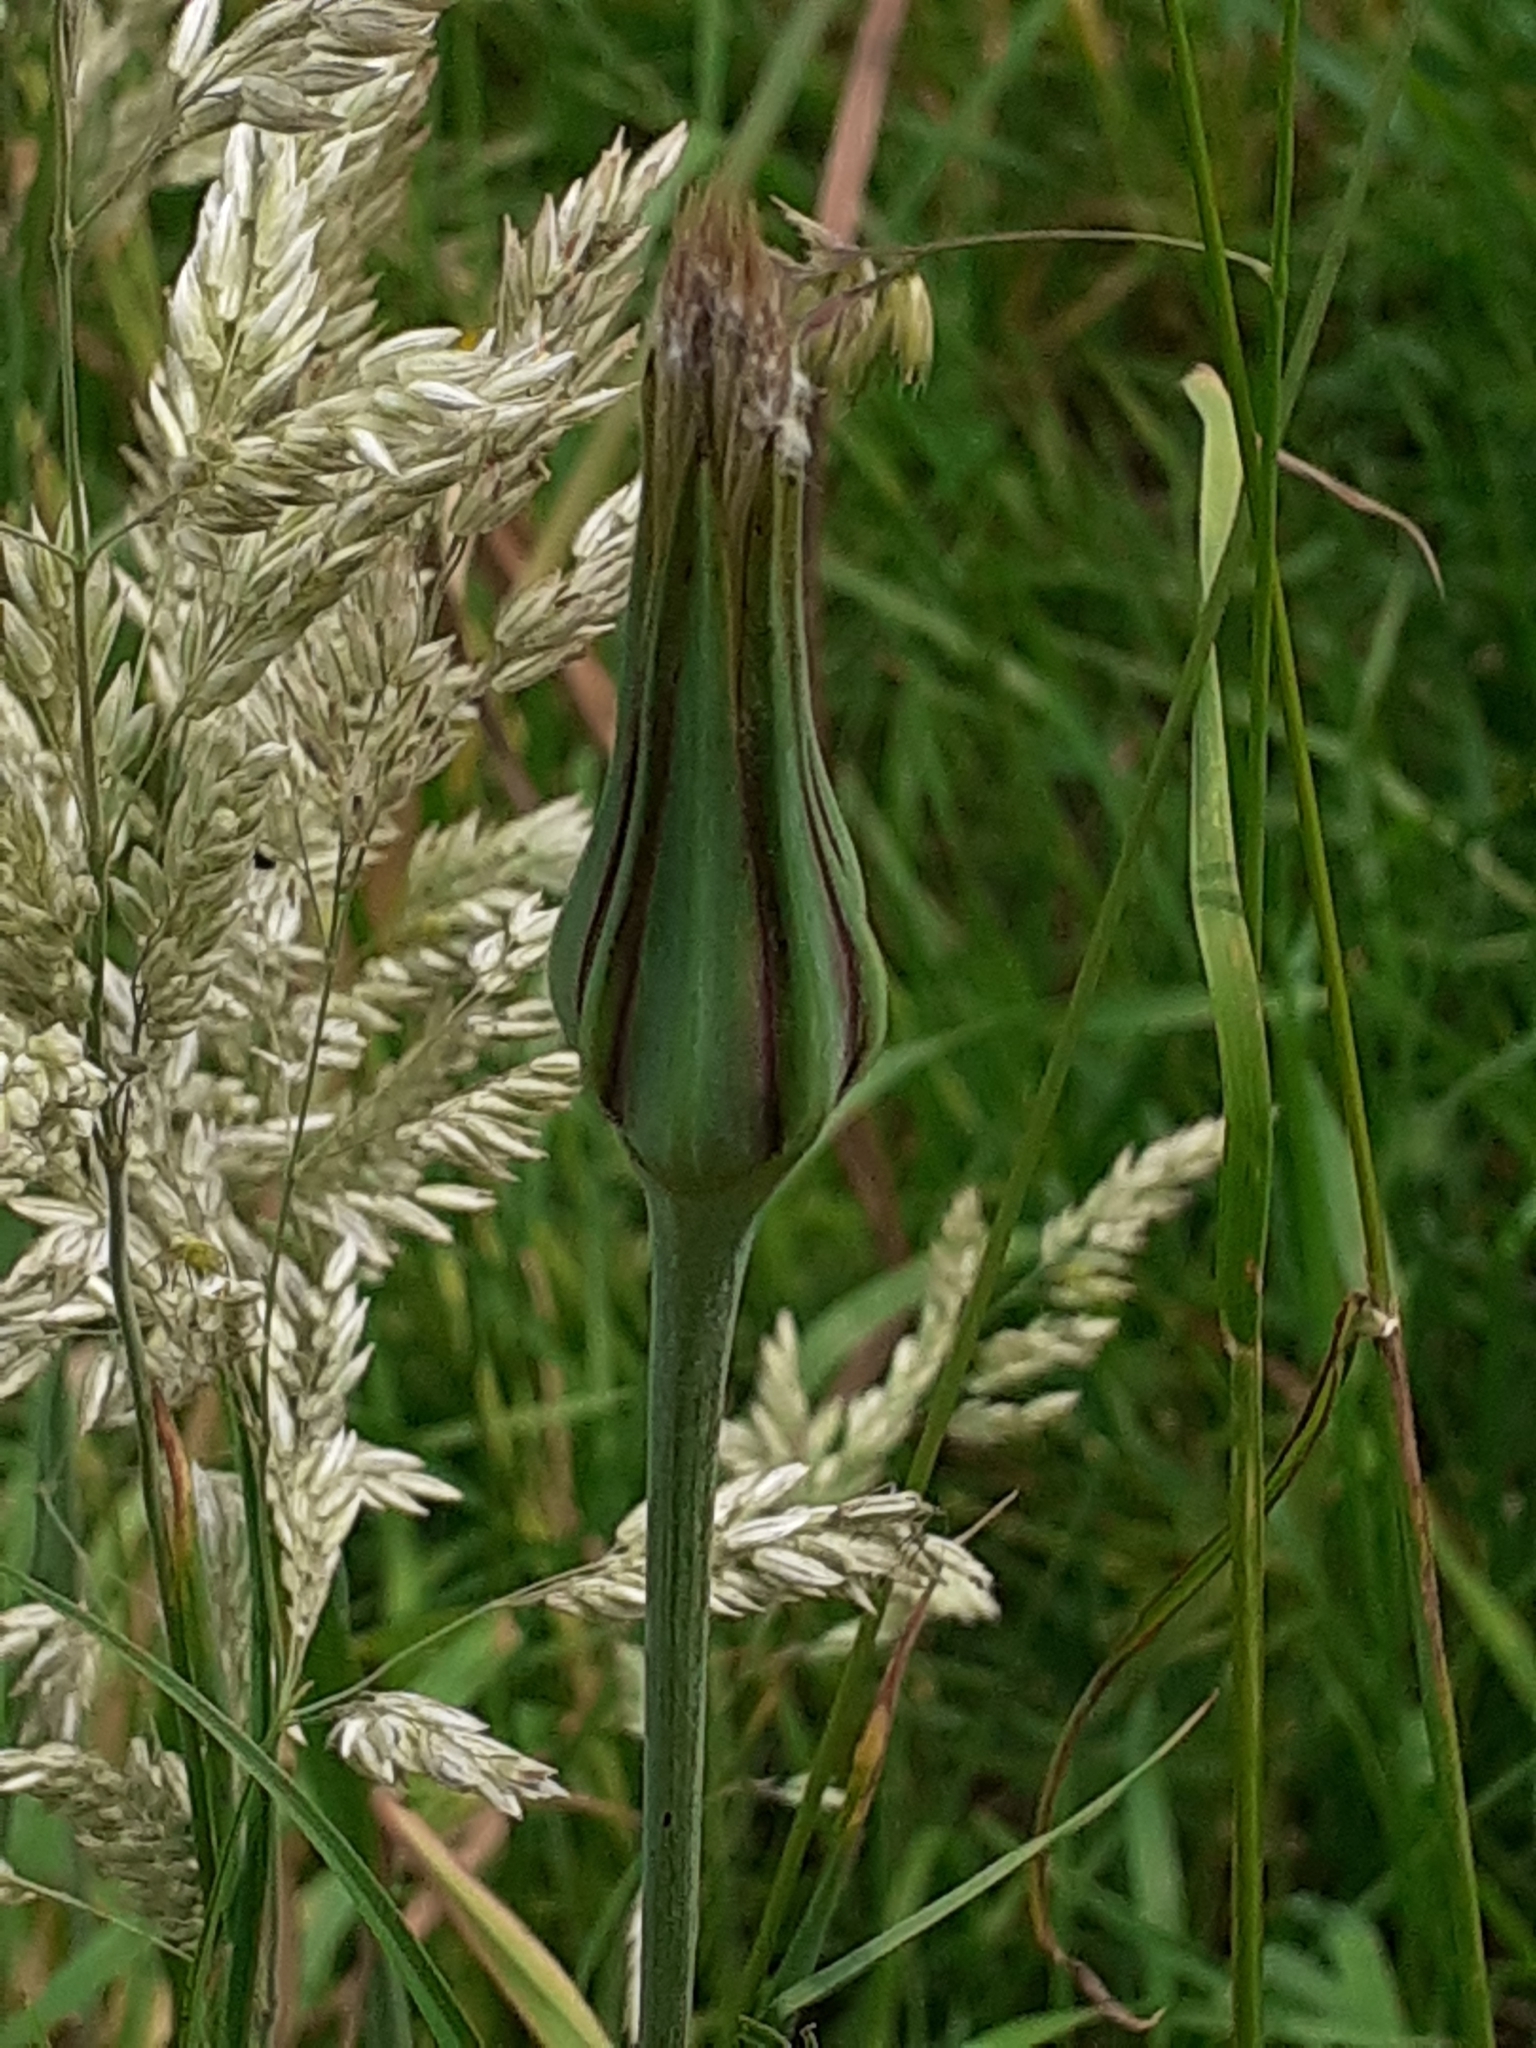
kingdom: Plantae
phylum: Tracheophyta
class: Magnoliopsida
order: Asterales
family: Asteraceae
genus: Tragopogon
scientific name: Tragopogon pratensis
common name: Goat's-beard
